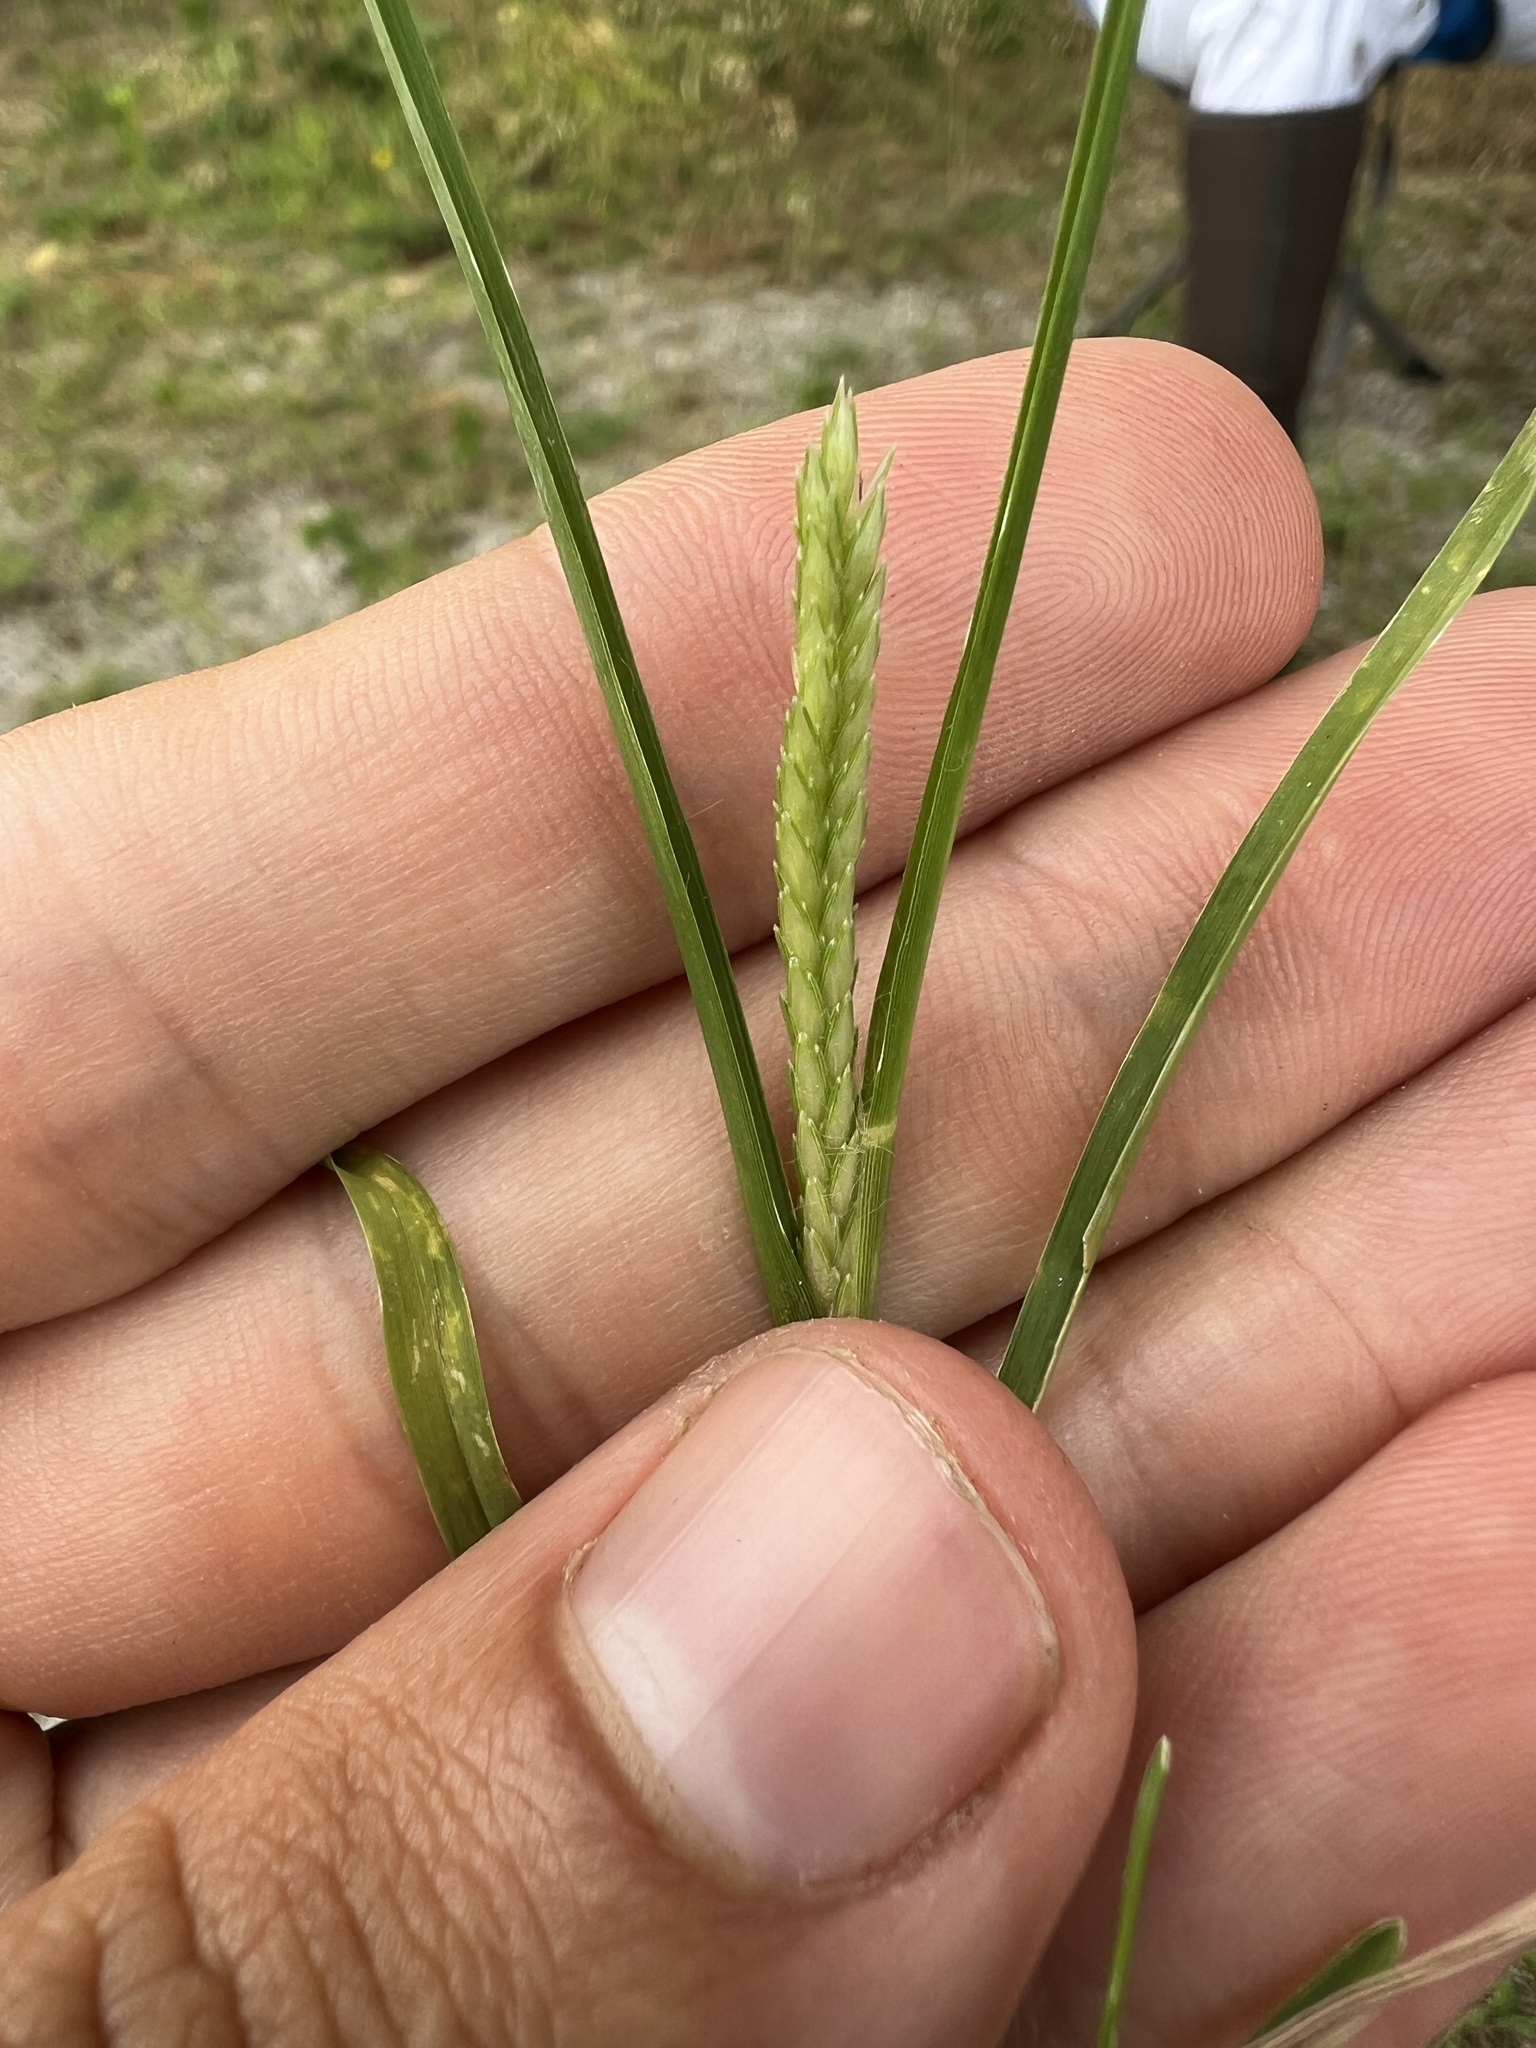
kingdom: Plantae
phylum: Tracheophyta
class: Liliopsida
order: Poales
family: Poaceae
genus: Eleusine
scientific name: Eleusine indica
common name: Yard-grass
